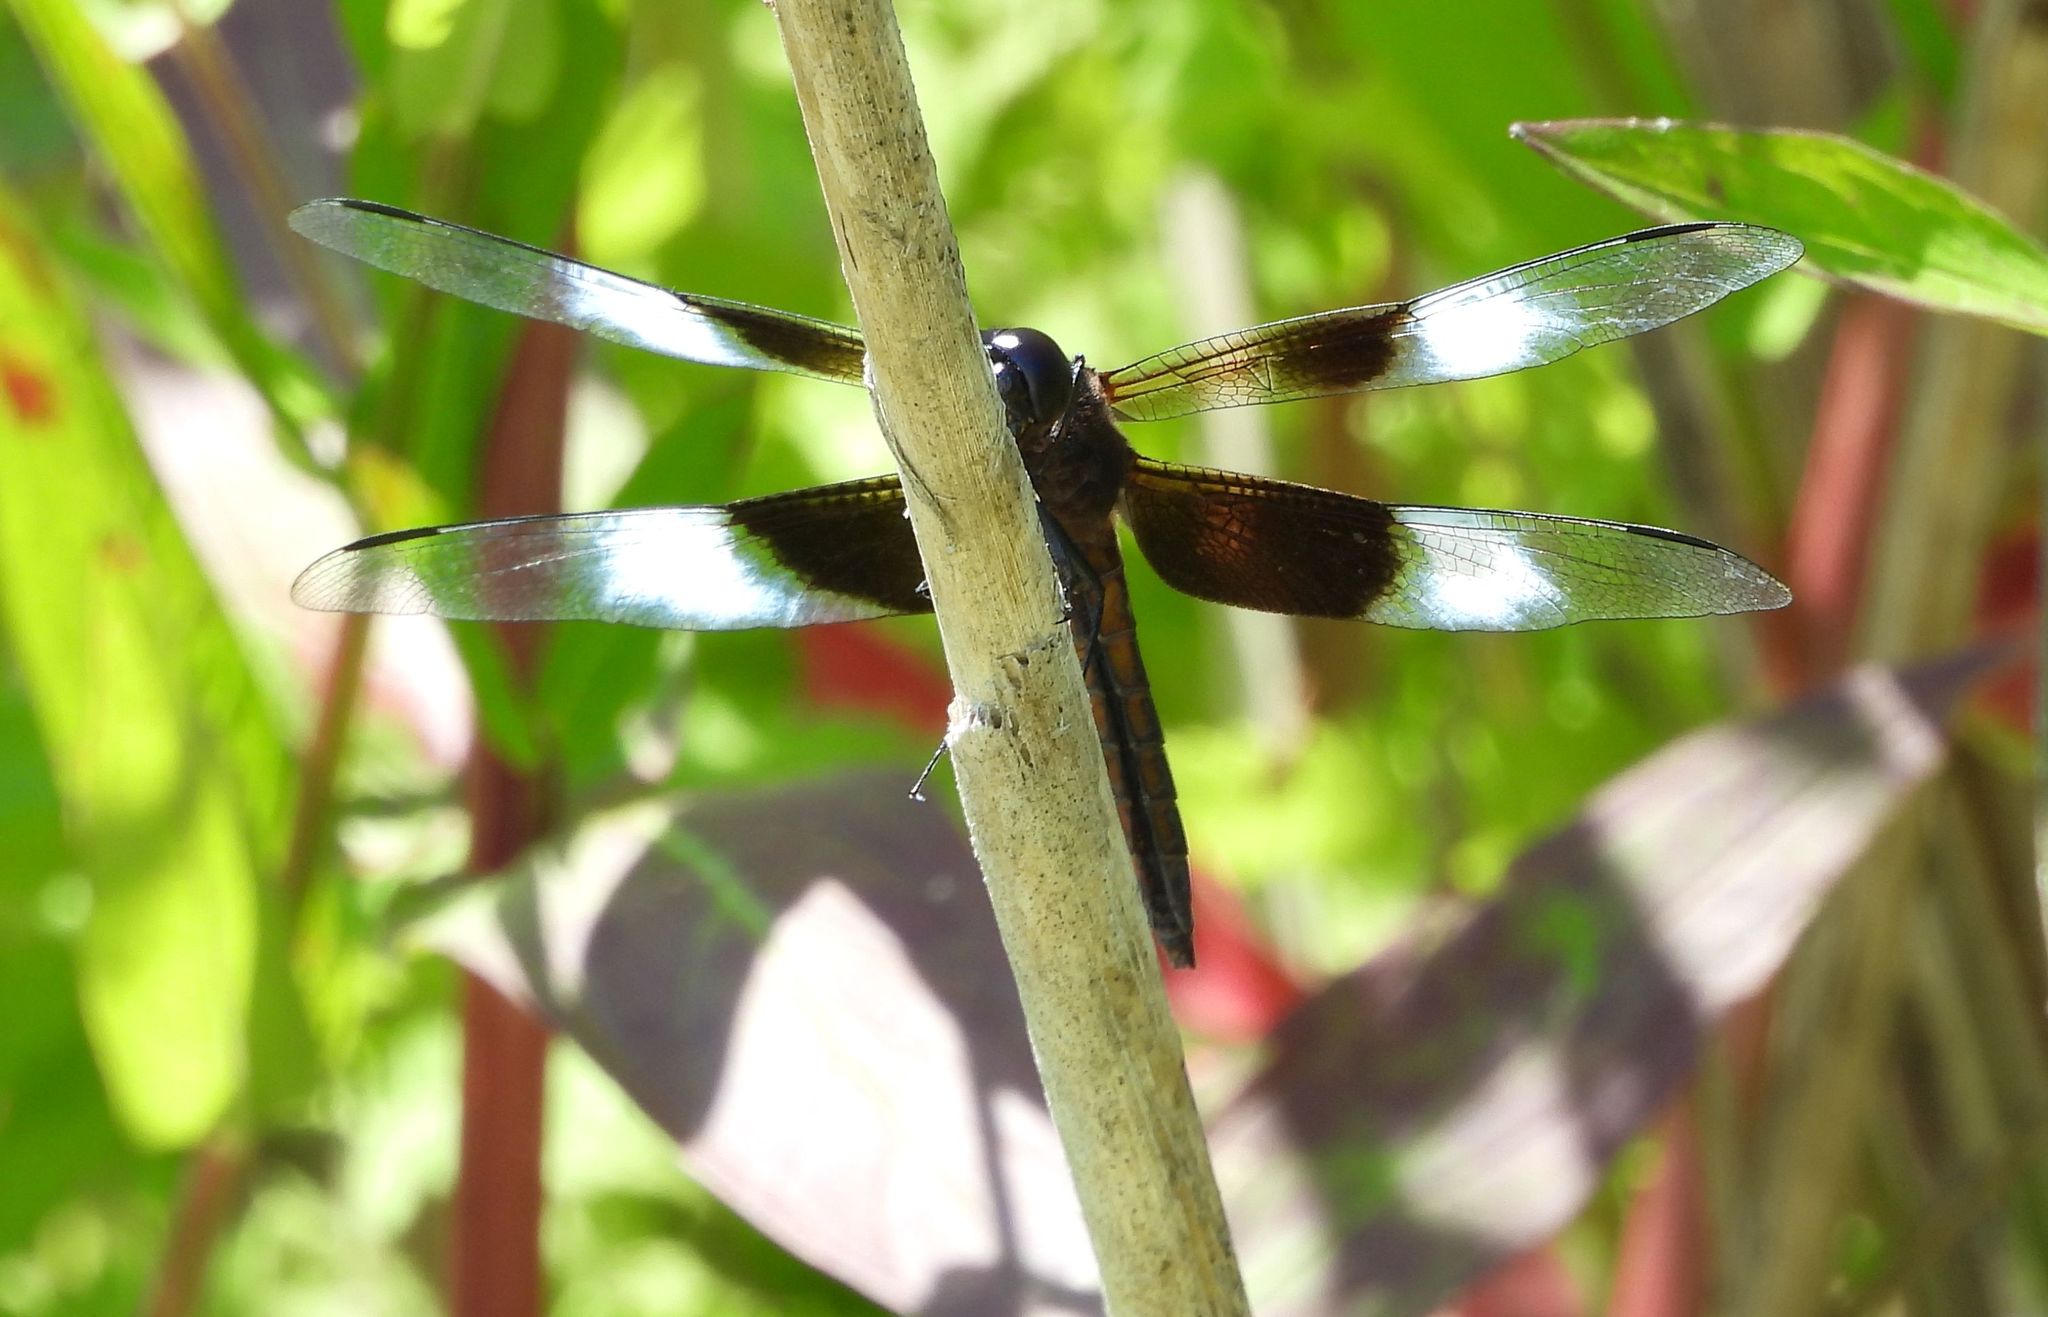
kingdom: Animalia
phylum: Arthropoda
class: Insecta
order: Odonata
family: Libellulidae
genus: Libellula
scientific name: Libellula luctuosa
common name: Widow skimmer
